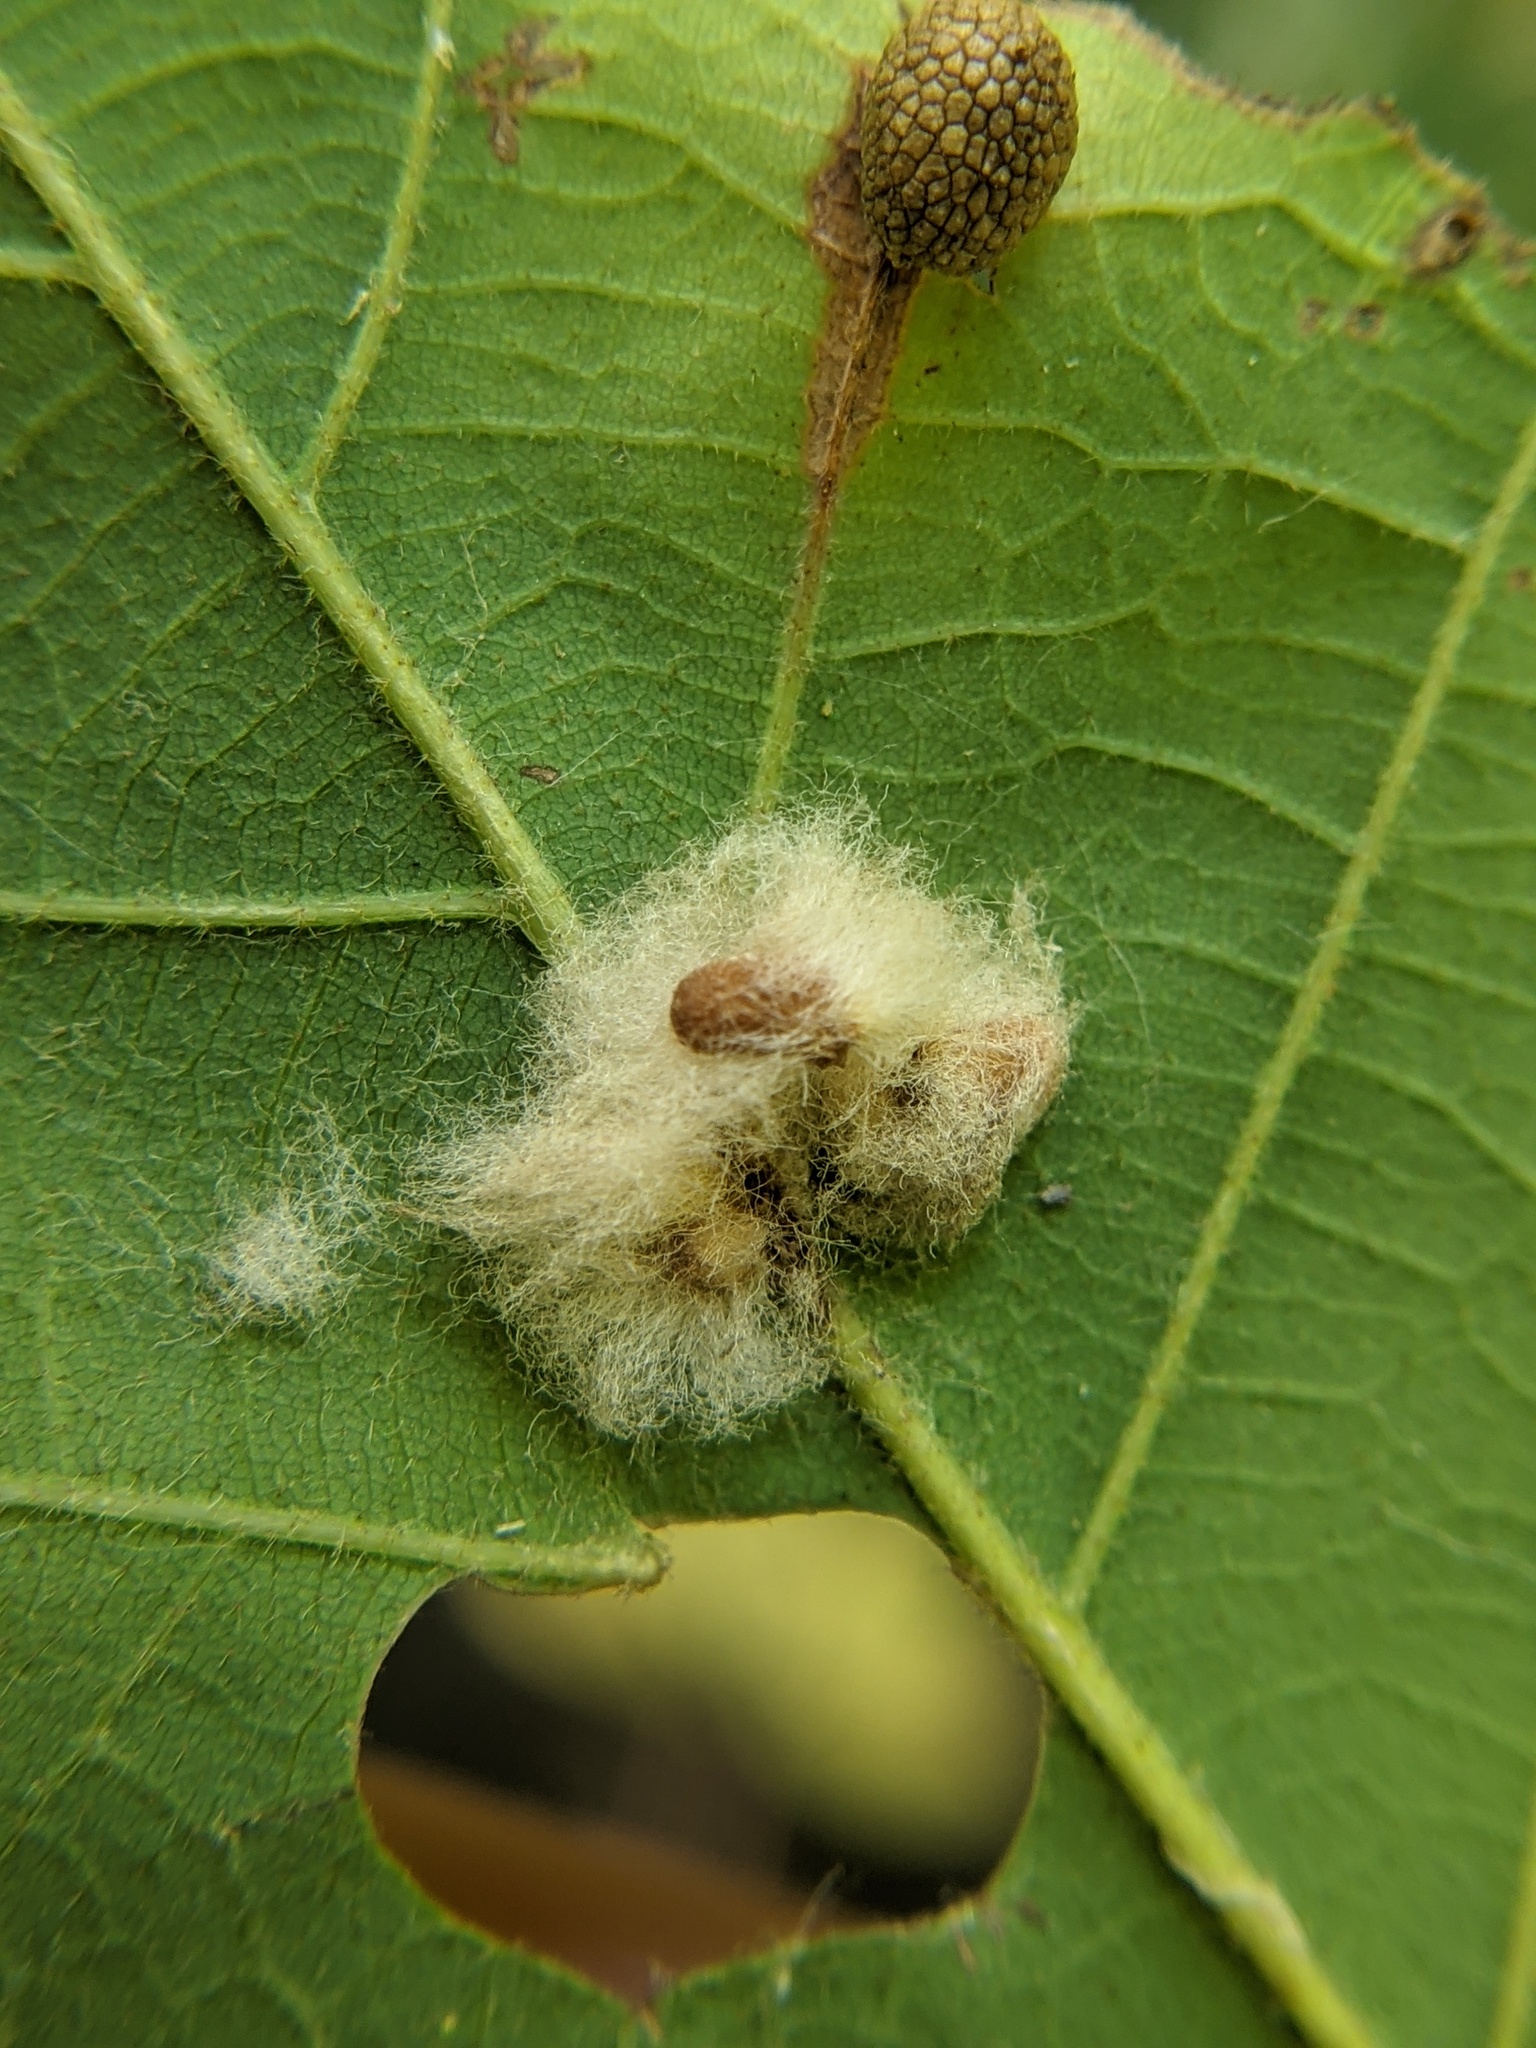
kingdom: Animalia
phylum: Arthropoda
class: Insecta
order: Hymenoptera
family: Cynipidae
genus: Andricus
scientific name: Andricus Druon ignotum
